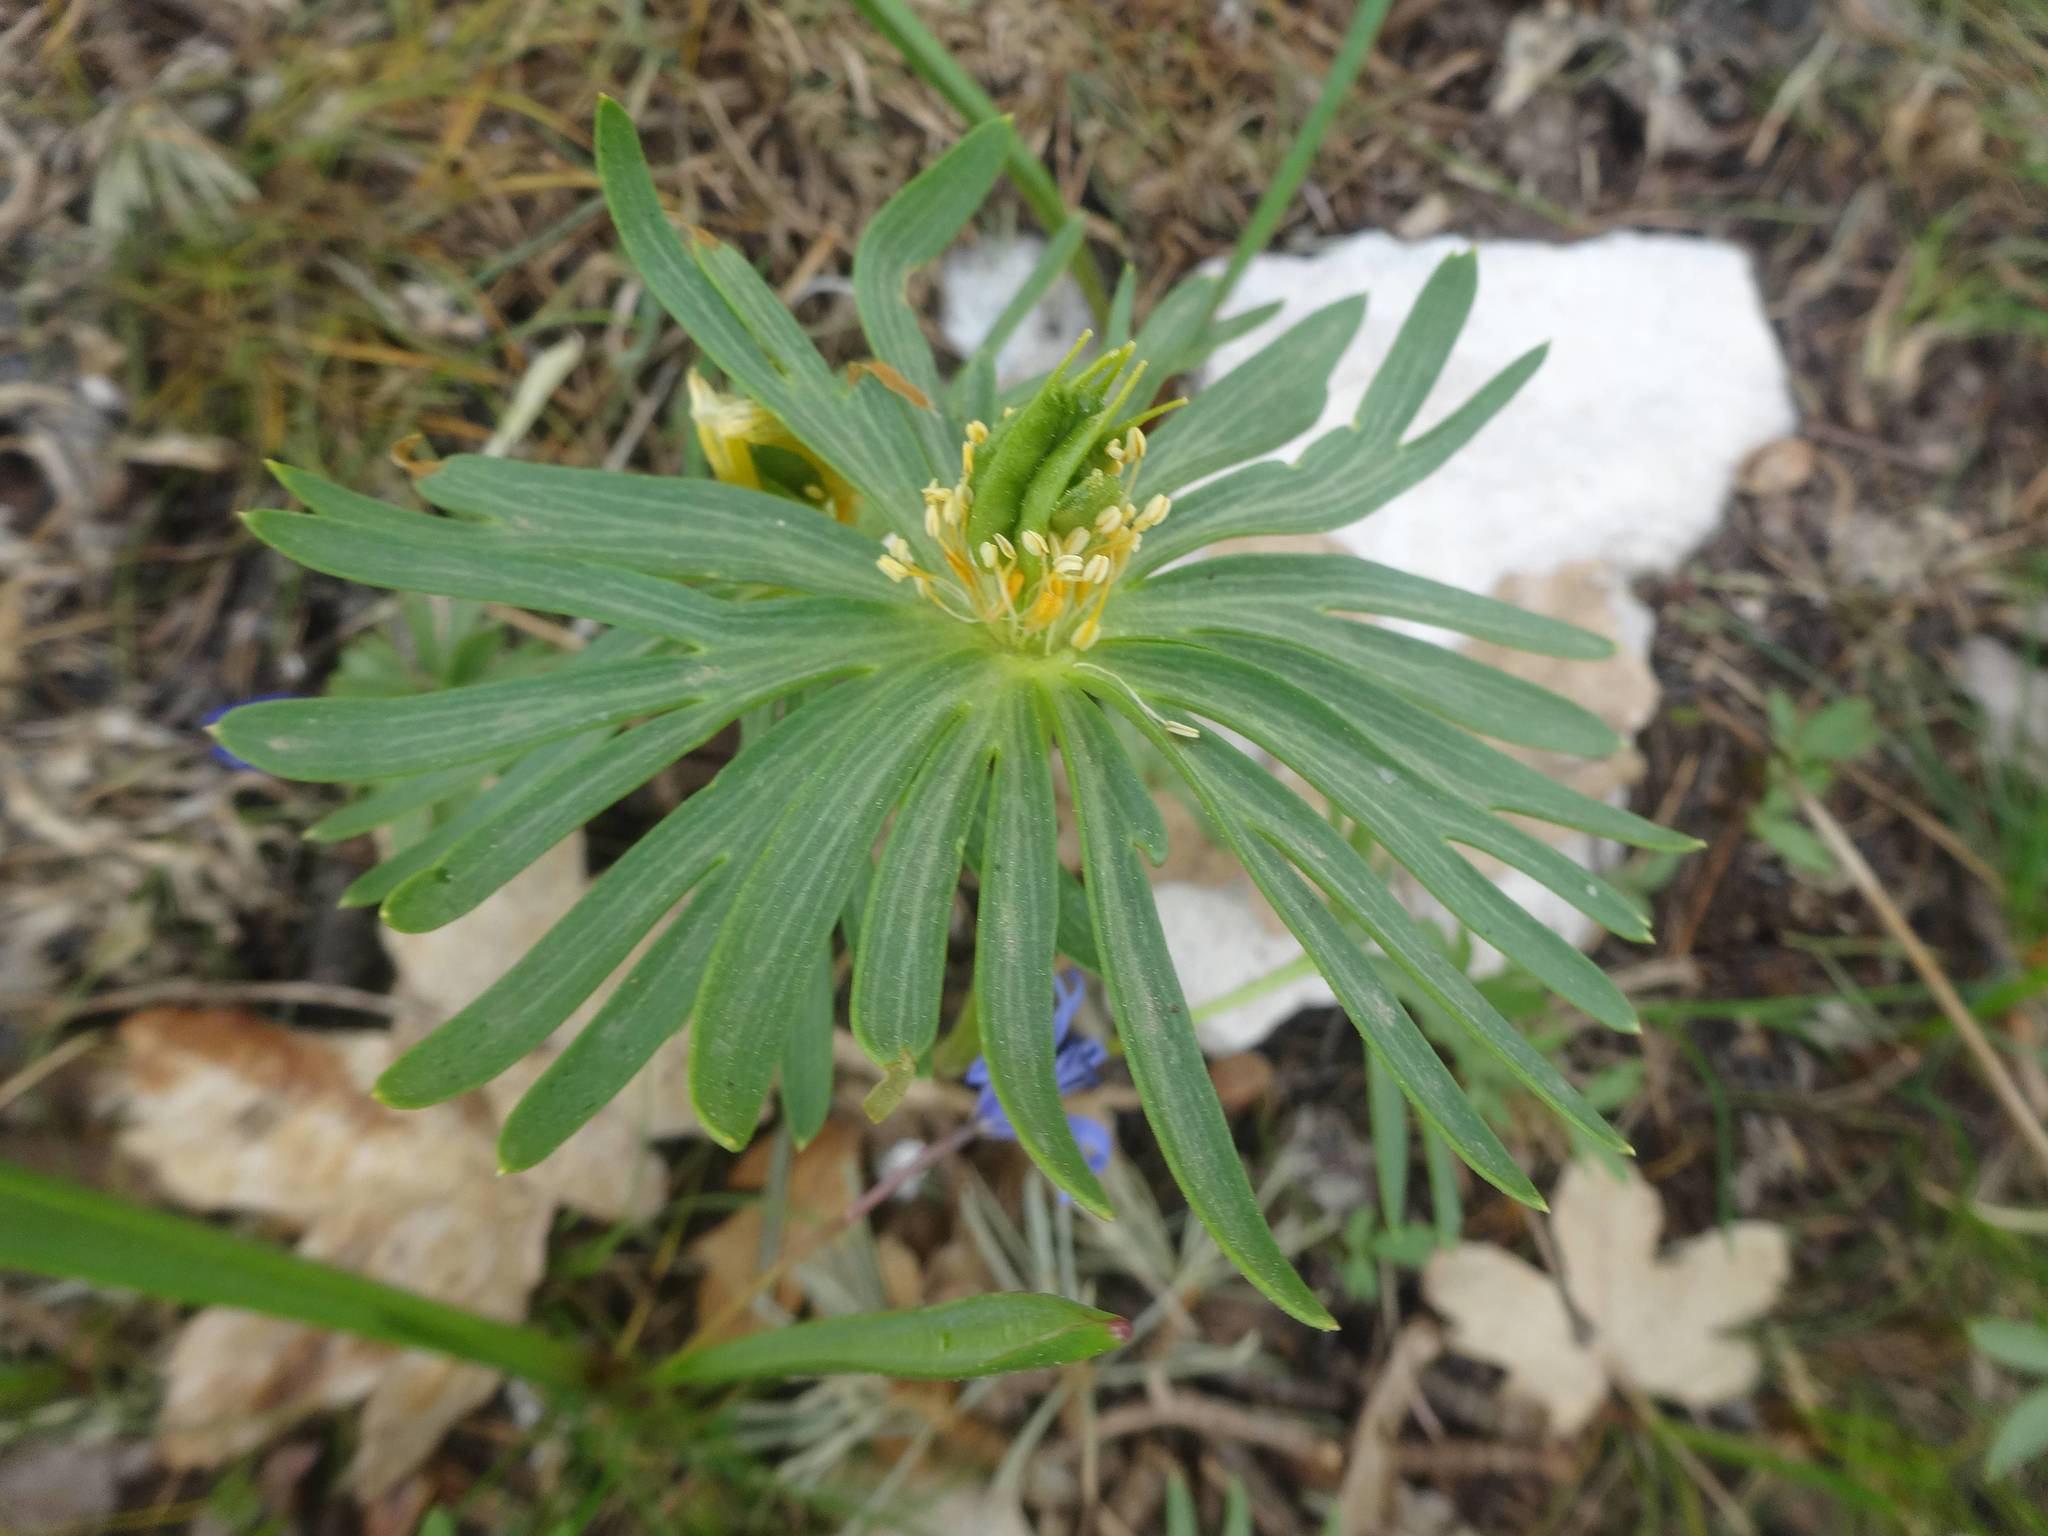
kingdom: Plantae
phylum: Tracheophyta
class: Magnoliopsida
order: Ranunculales
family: Ranunculaceae
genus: Eranthis
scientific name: Eranthis cilicica
